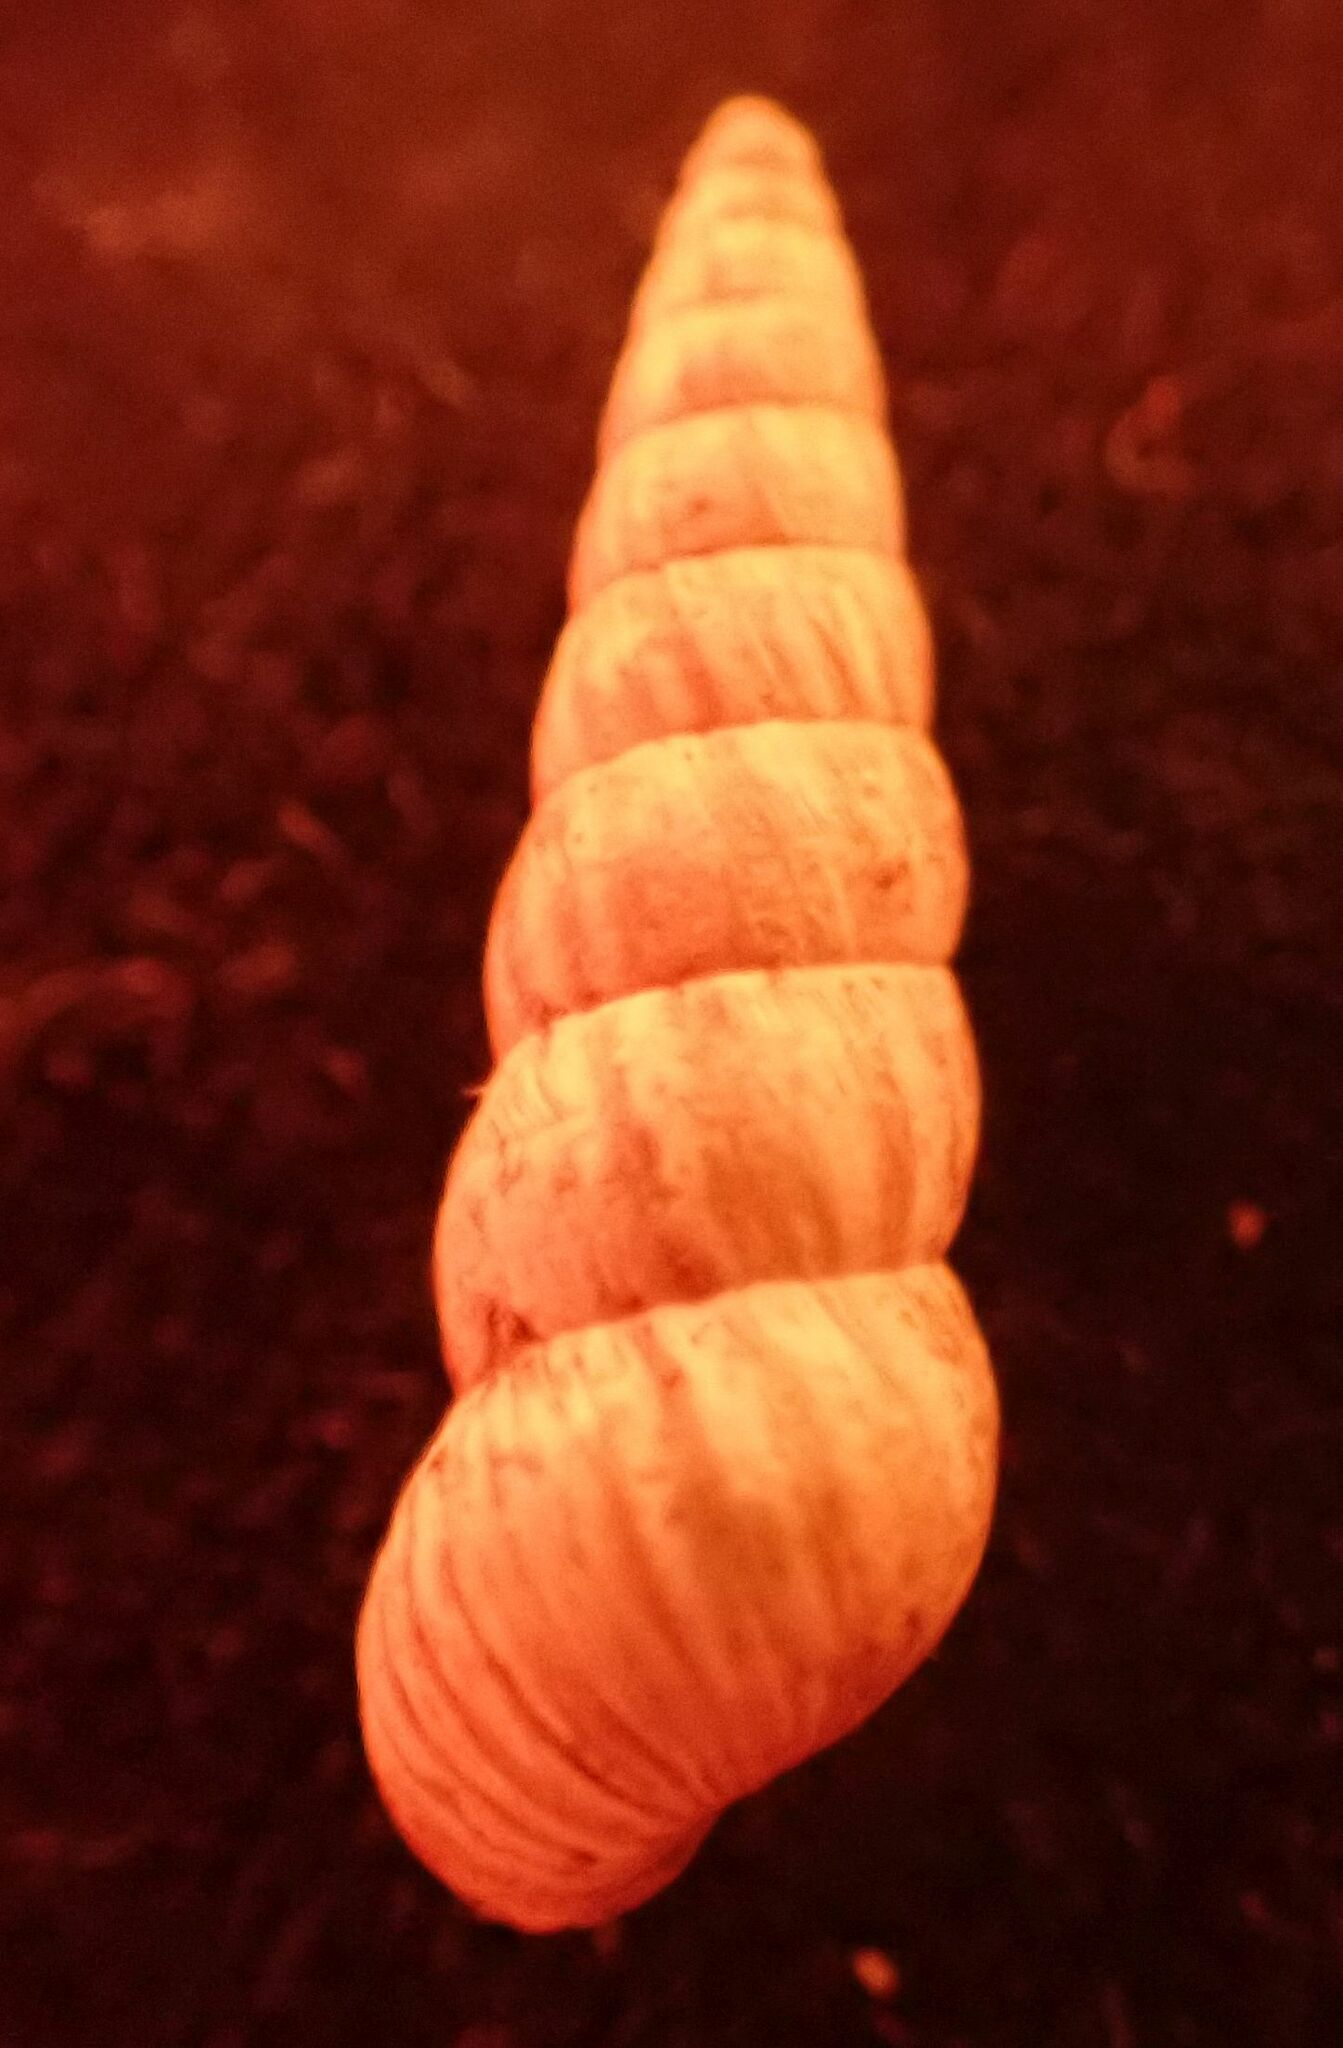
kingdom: Animalia
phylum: Mollusca
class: Gastropoda
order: Stylommatophora
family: Geomitridae
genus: Cochlicella
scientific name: Cochlicella acuta
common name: Pointed snail
